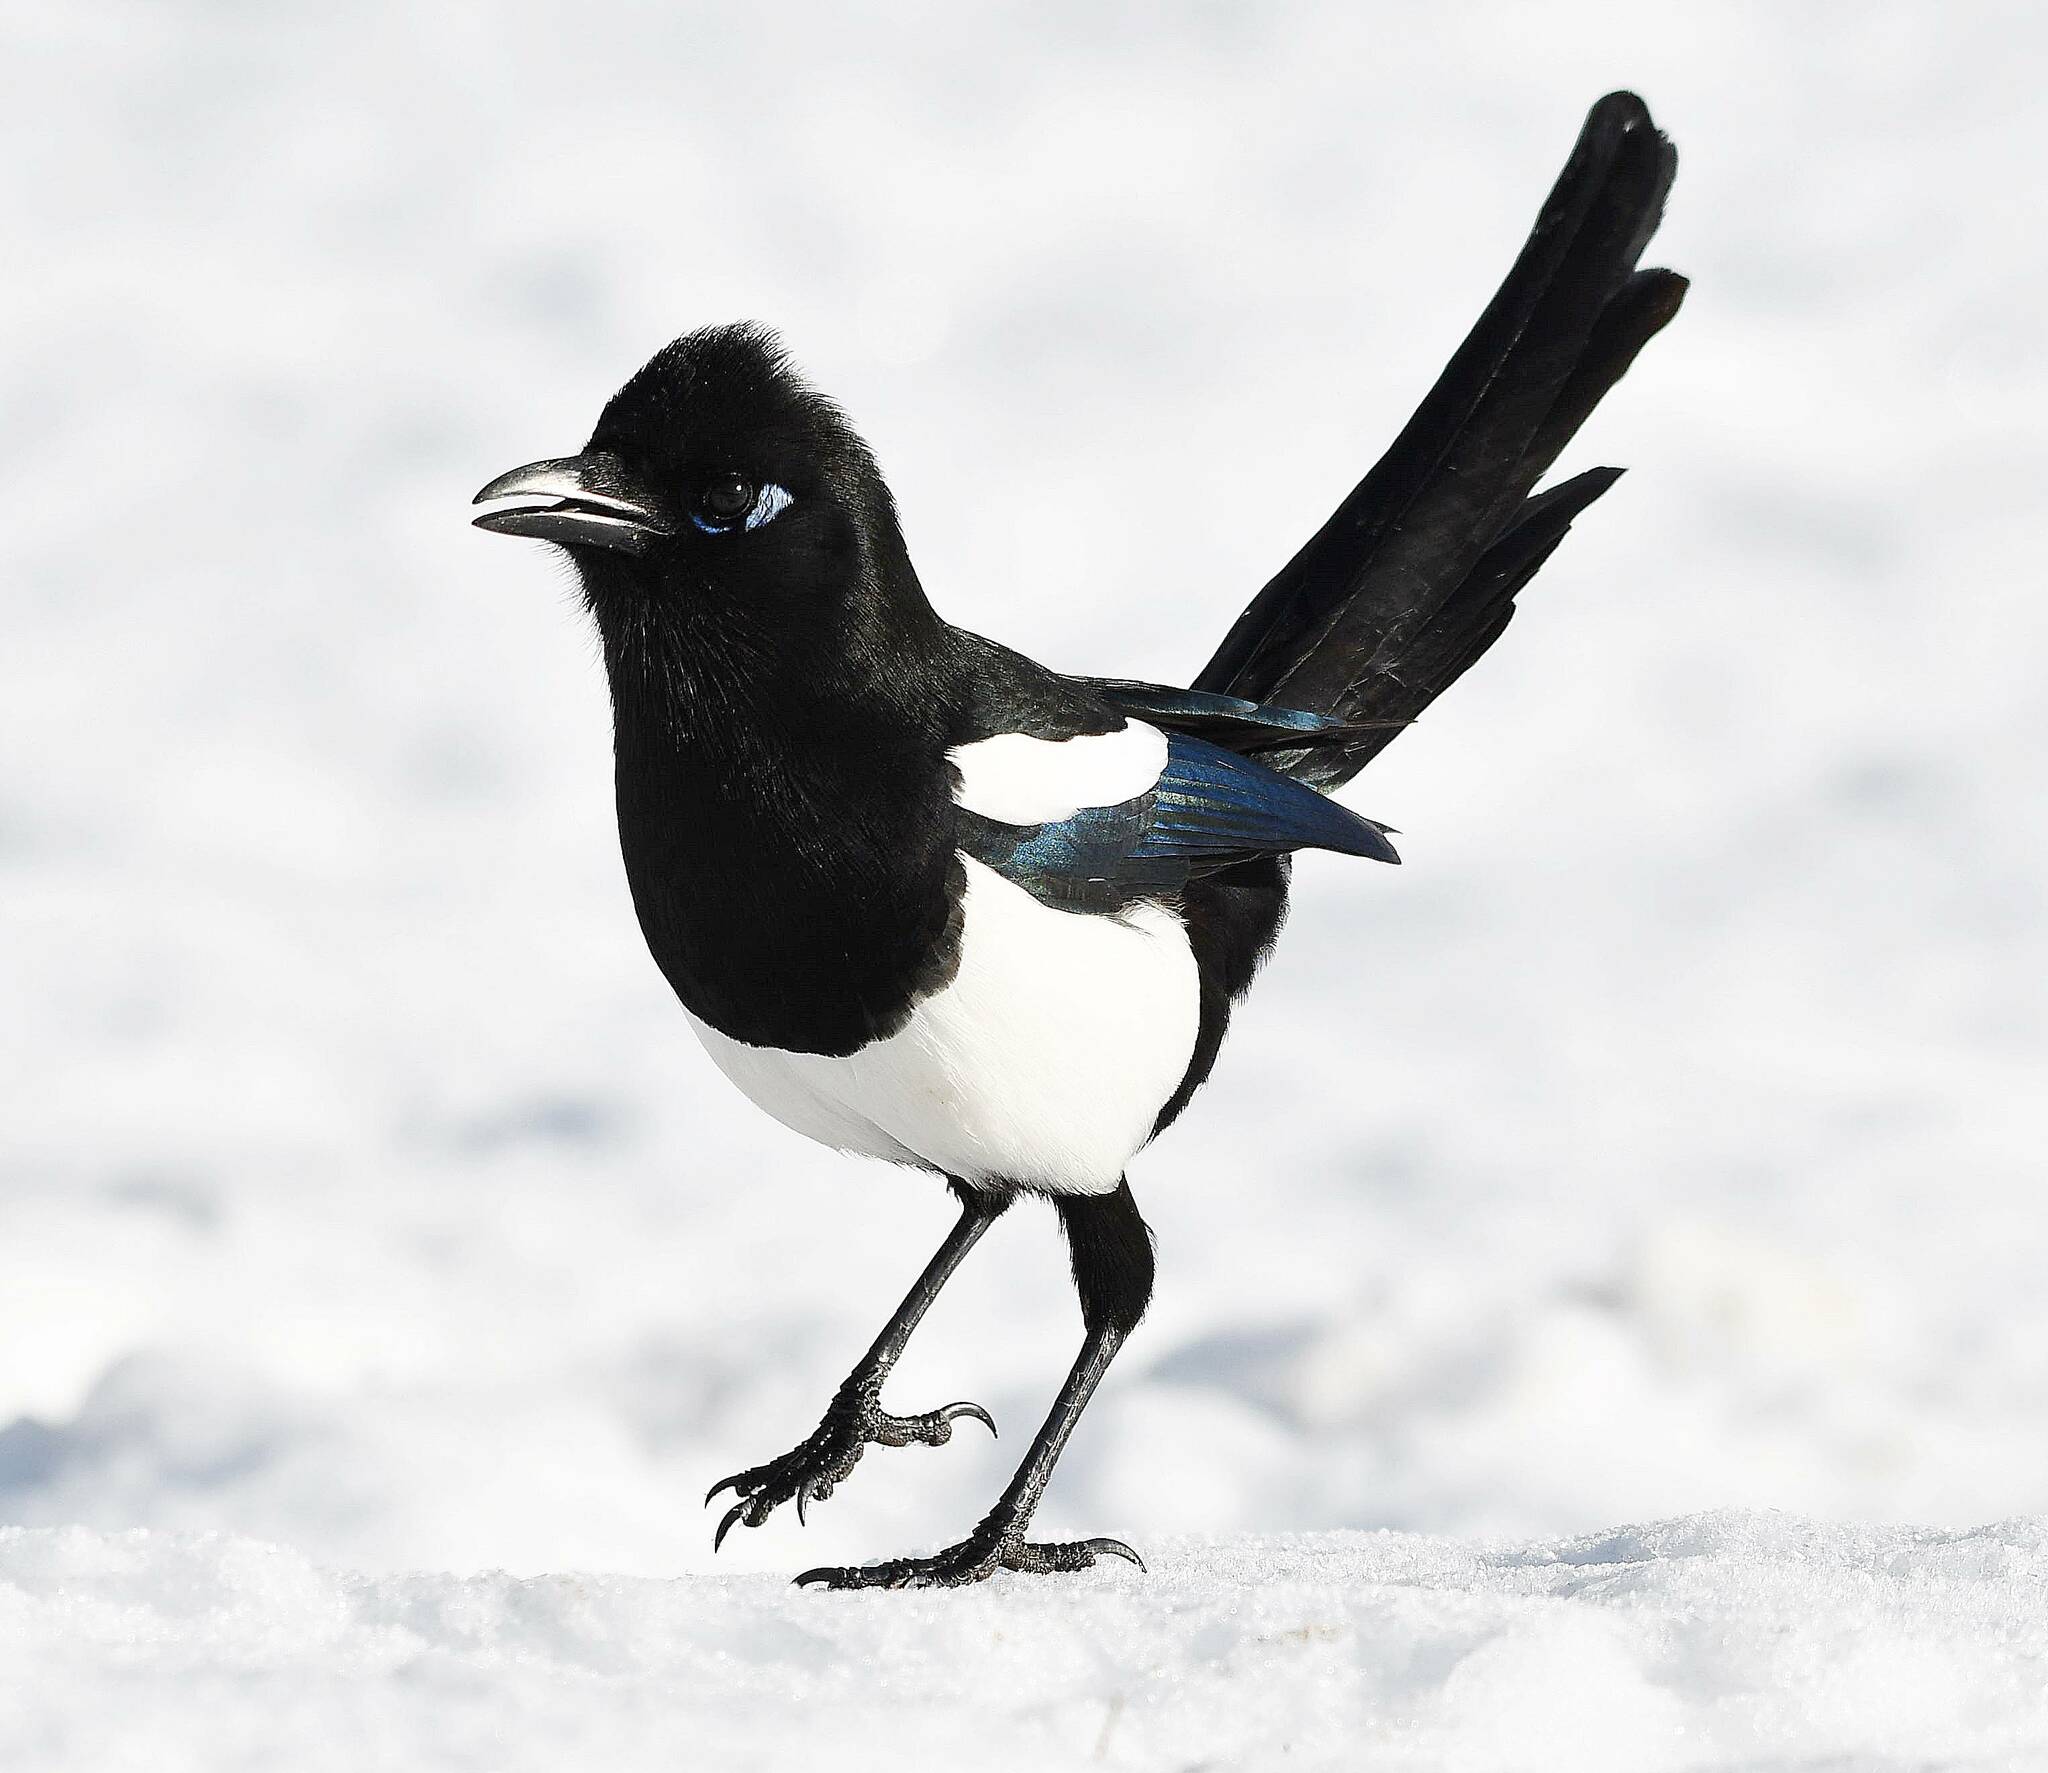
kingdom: Animalia
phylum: Chordata
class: Aves
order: Passeriformes
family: Corvidae
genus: Pica
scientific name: Pica mauritanica
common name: Maghreb magpie
